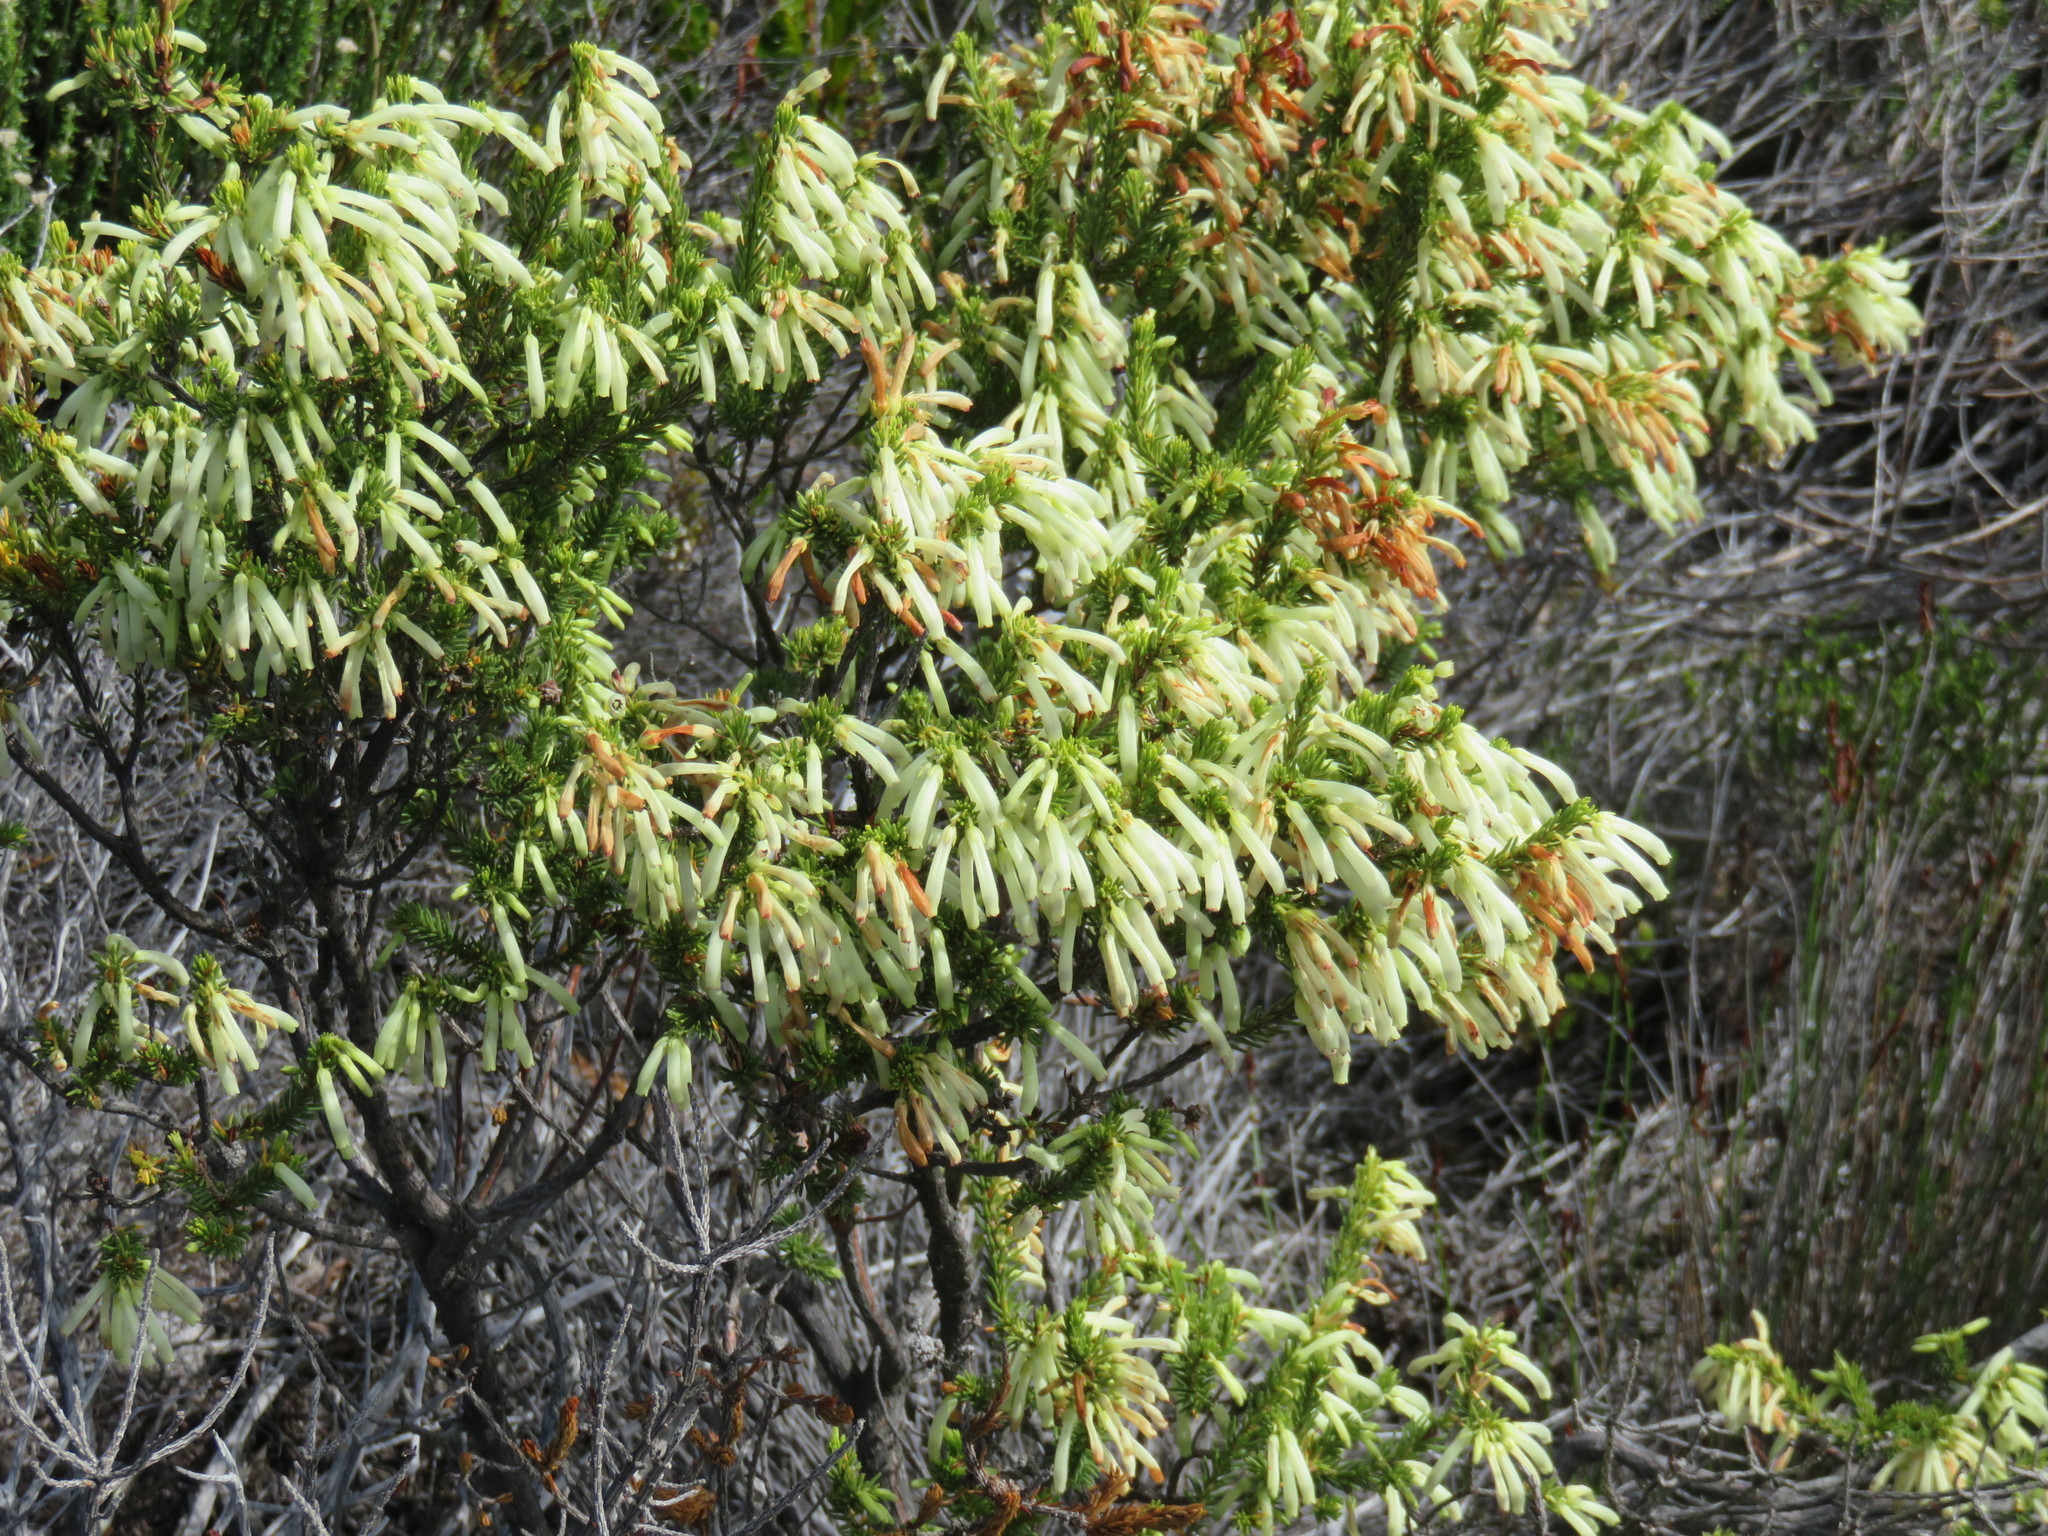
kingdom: Plantae
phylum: Tracheophyta
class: Magnoliopsida
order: Ericales
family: Ericaceae
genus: Erica
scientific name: Erica mammosa
